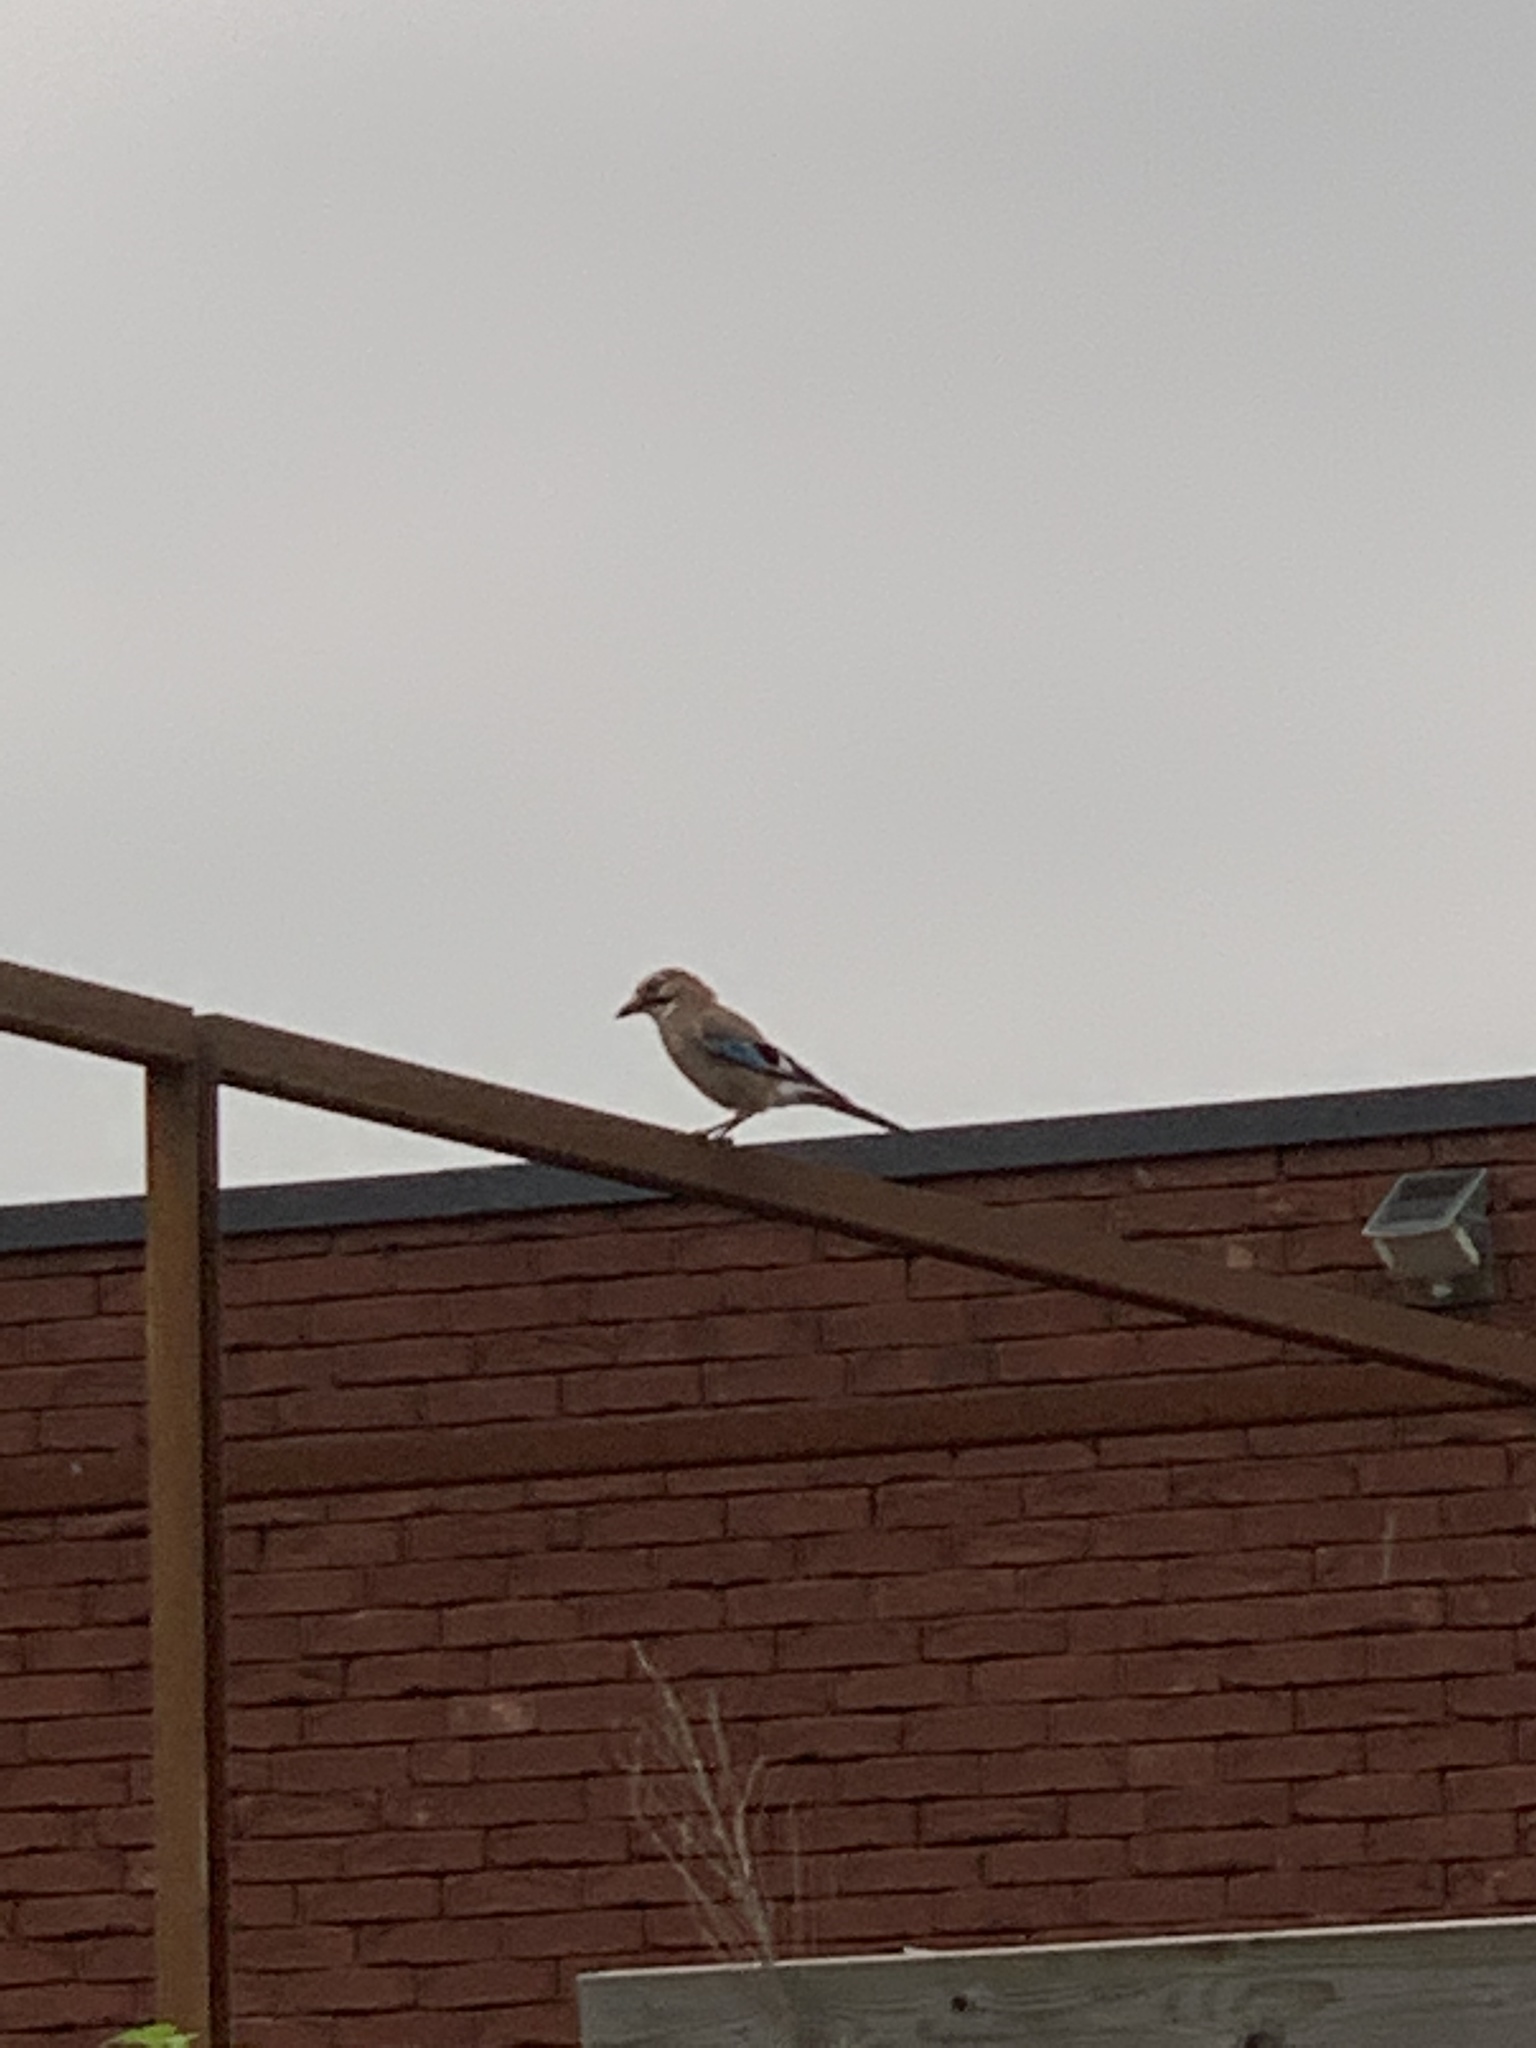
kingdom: Animalia
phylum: Chordata
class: Aves
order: Passeriformes
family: Corvidae
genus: Garrulus
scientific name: Garrulus glandarius
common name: Eurasian jay
